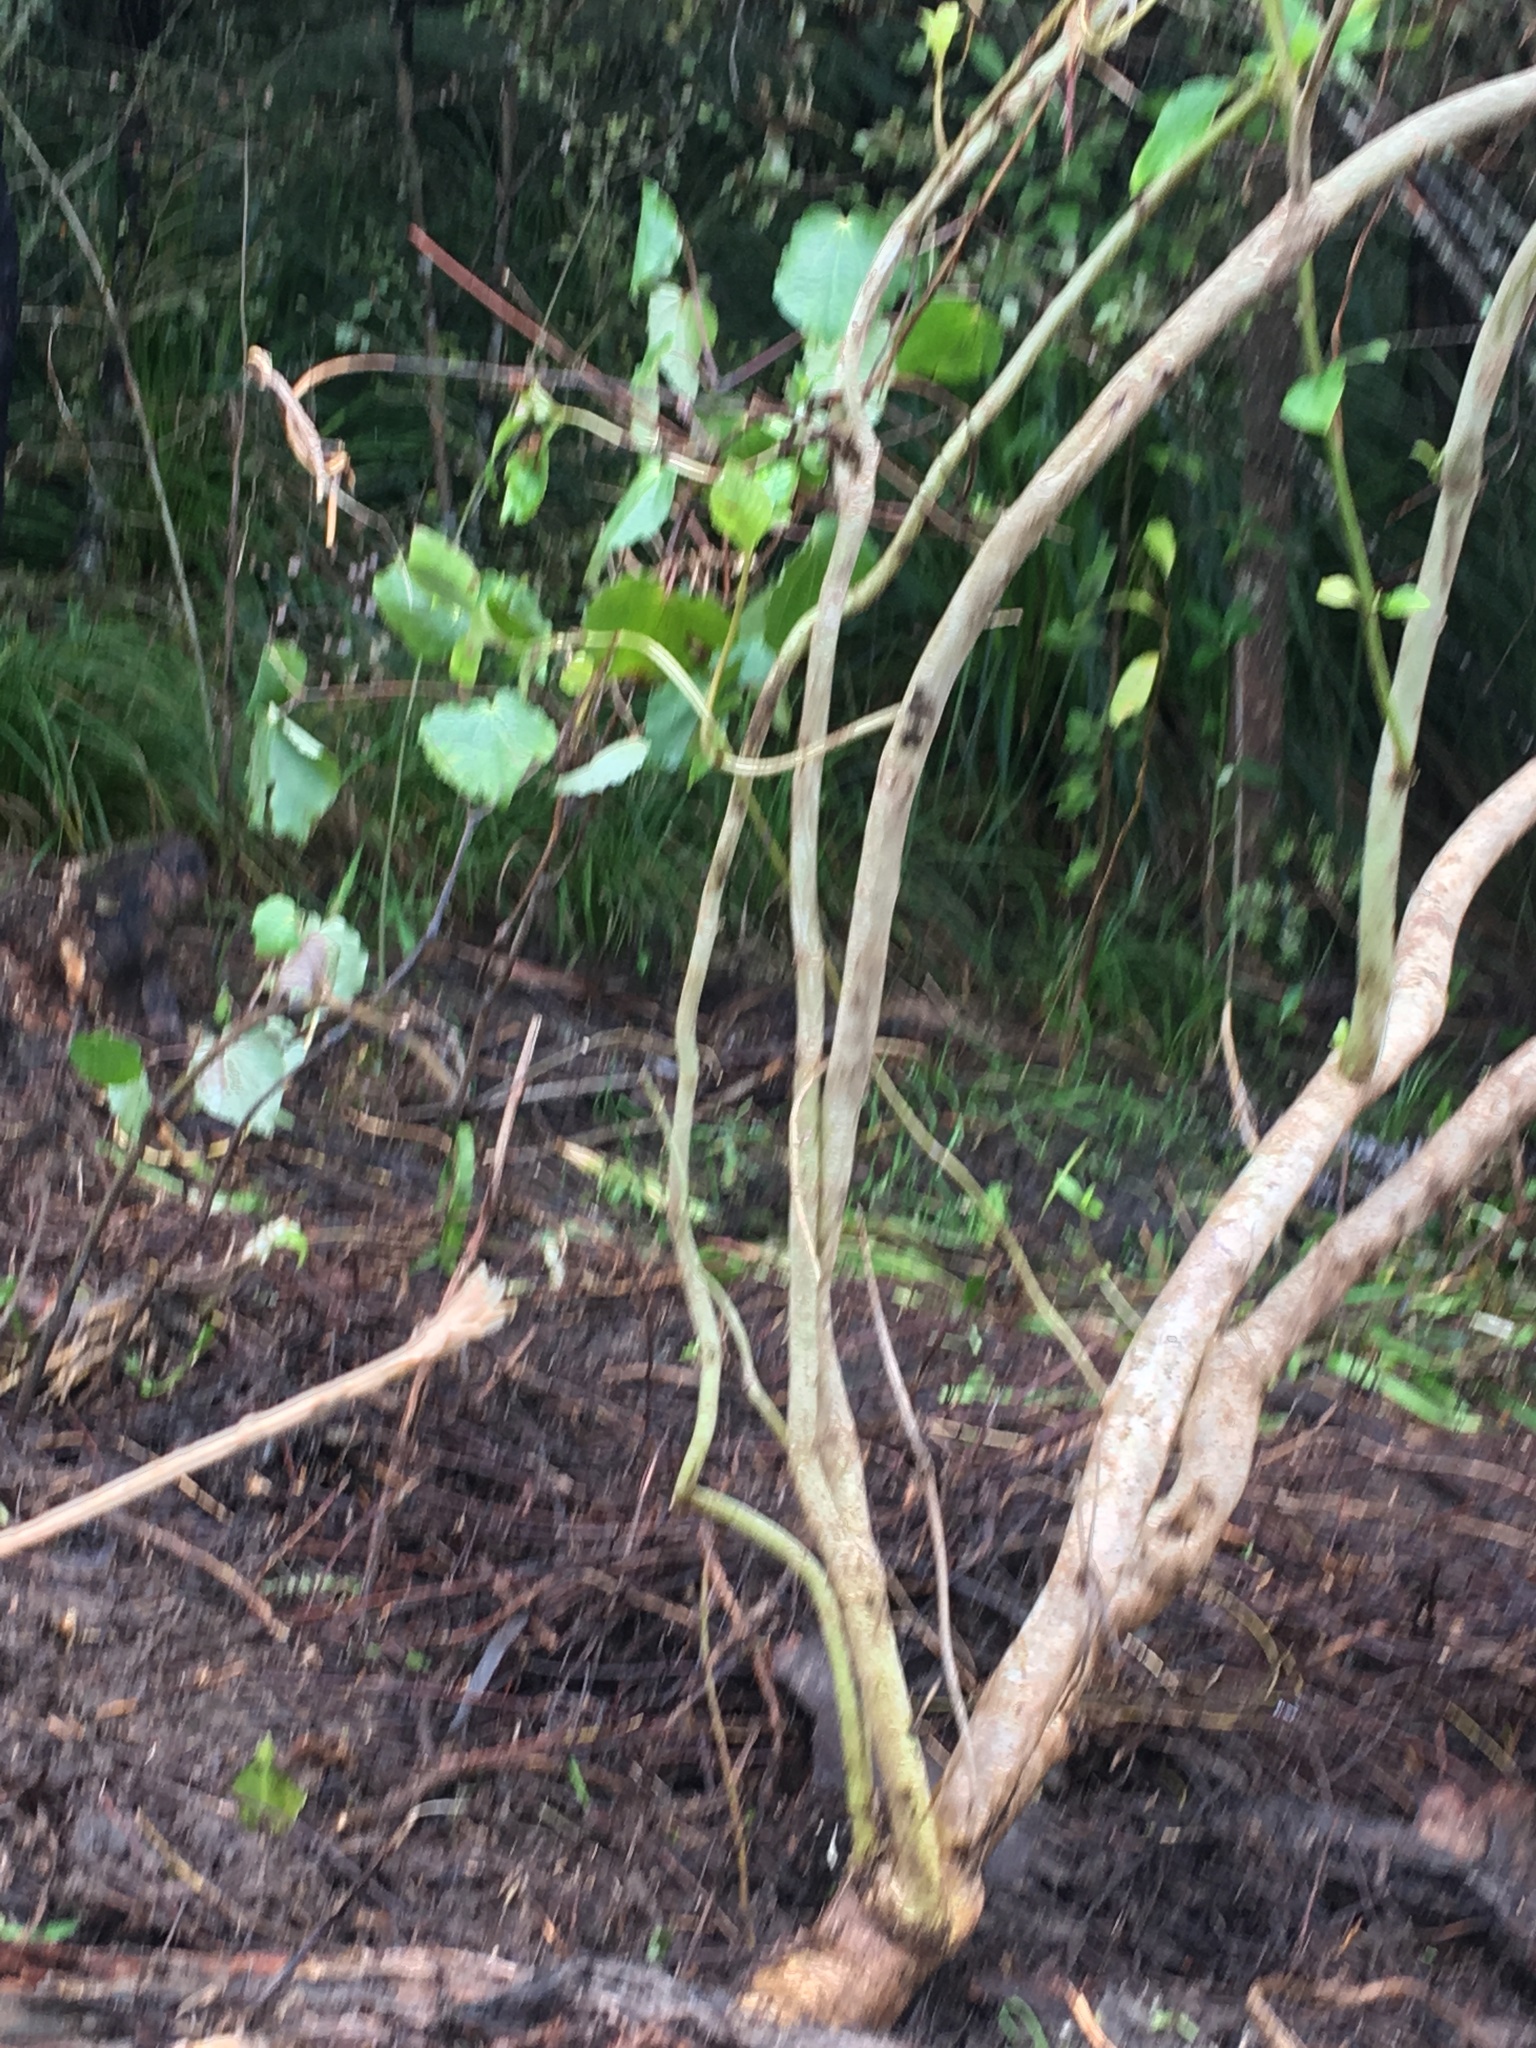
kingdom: Plantae
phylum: Tracheophyta
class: Magnoliopsida
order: Piperales
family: Piperaceae
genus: Macropiper
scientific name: Macropiper excelsum
